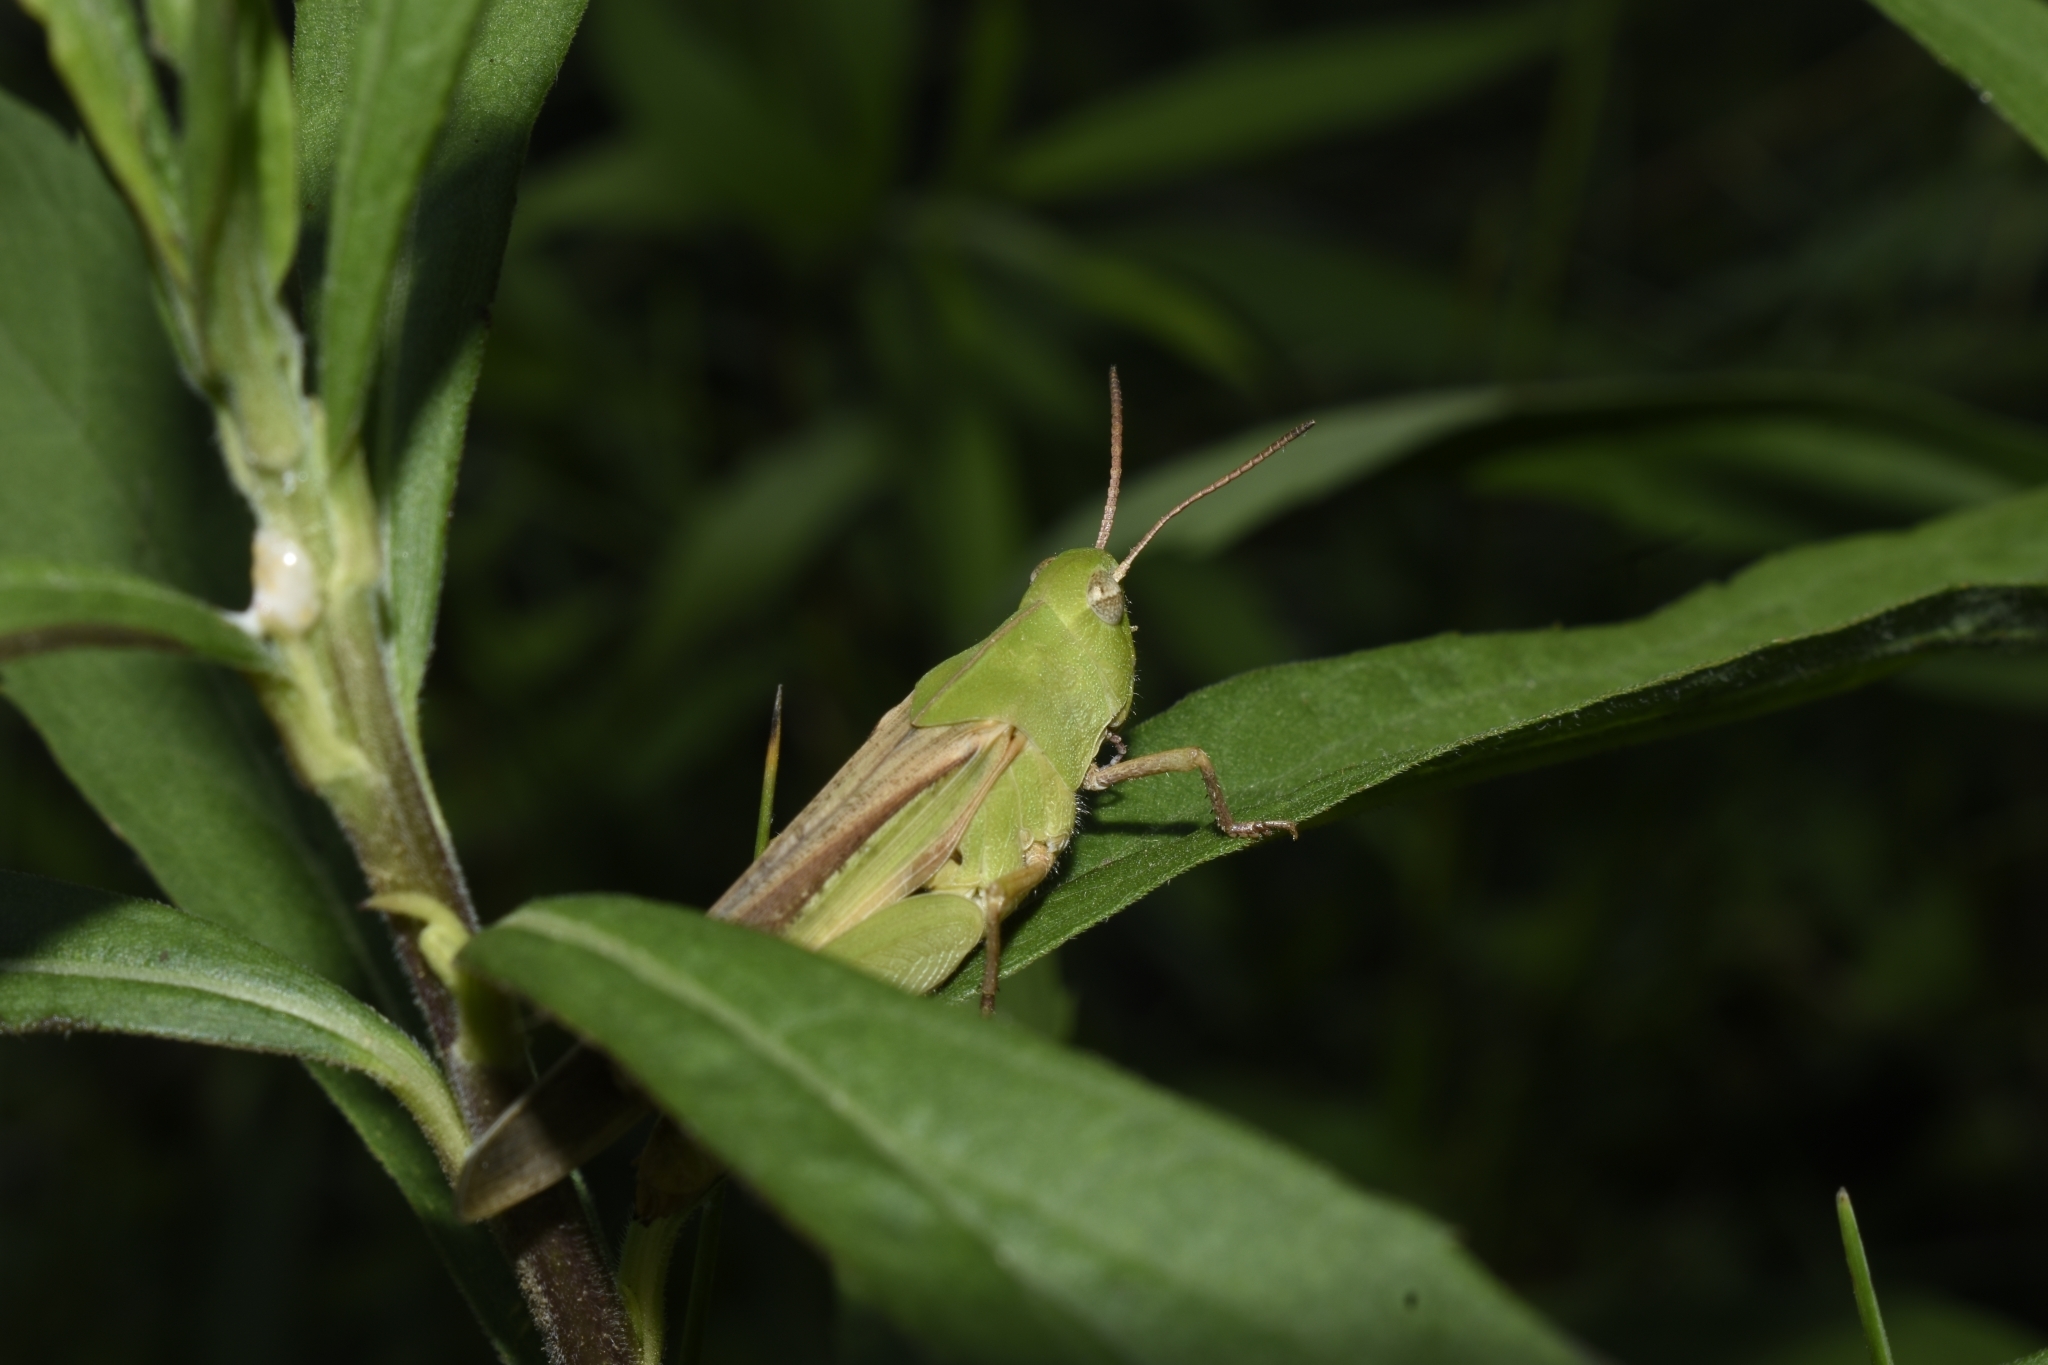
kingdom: Animalia
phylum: Arthropoda
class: Insecta
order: Orthoptera
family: Acrididae
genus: Chortophaga
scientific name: Chortophaga viridifasciata
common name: Green-striped grasshopper
